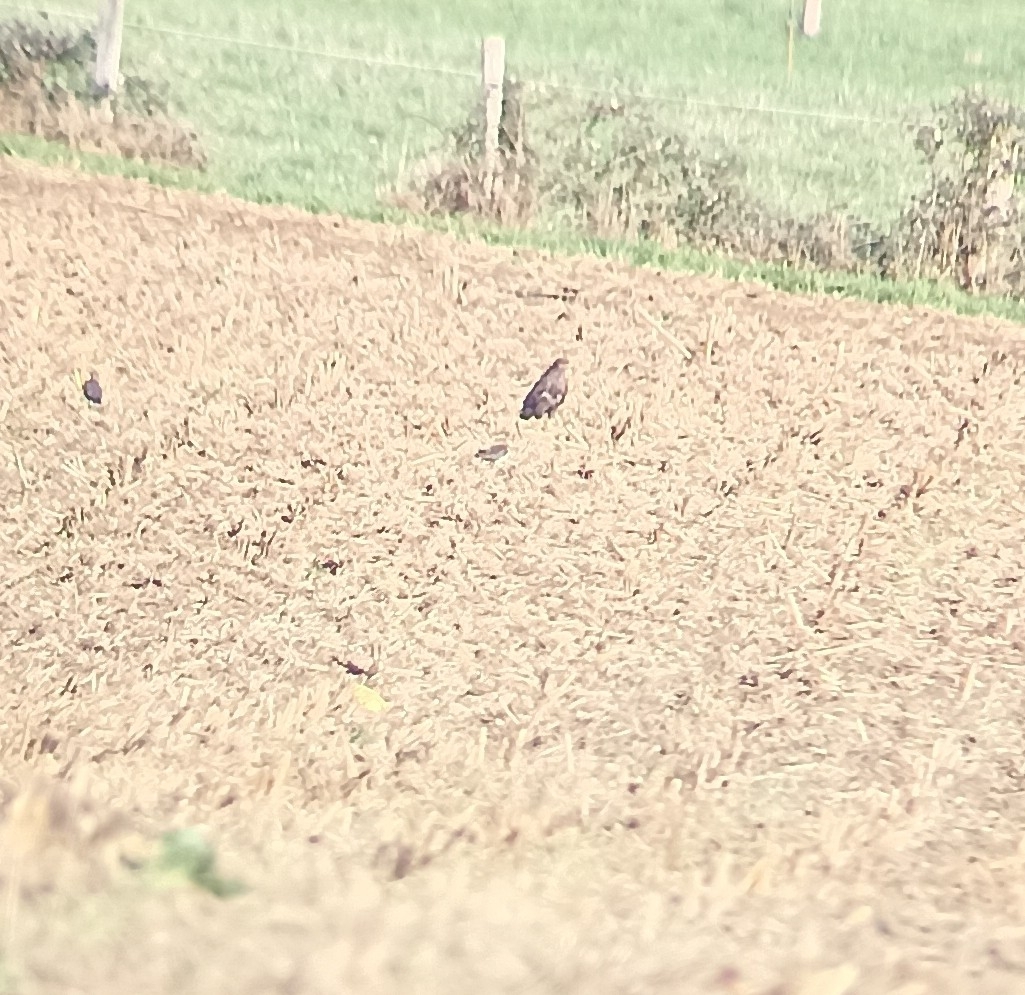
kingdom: Animalia
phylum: Chordata
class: Aves
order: Accipitriformes
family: Accipitridae
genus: Buteo
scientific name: Buteo buteo
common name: Common buzzard
